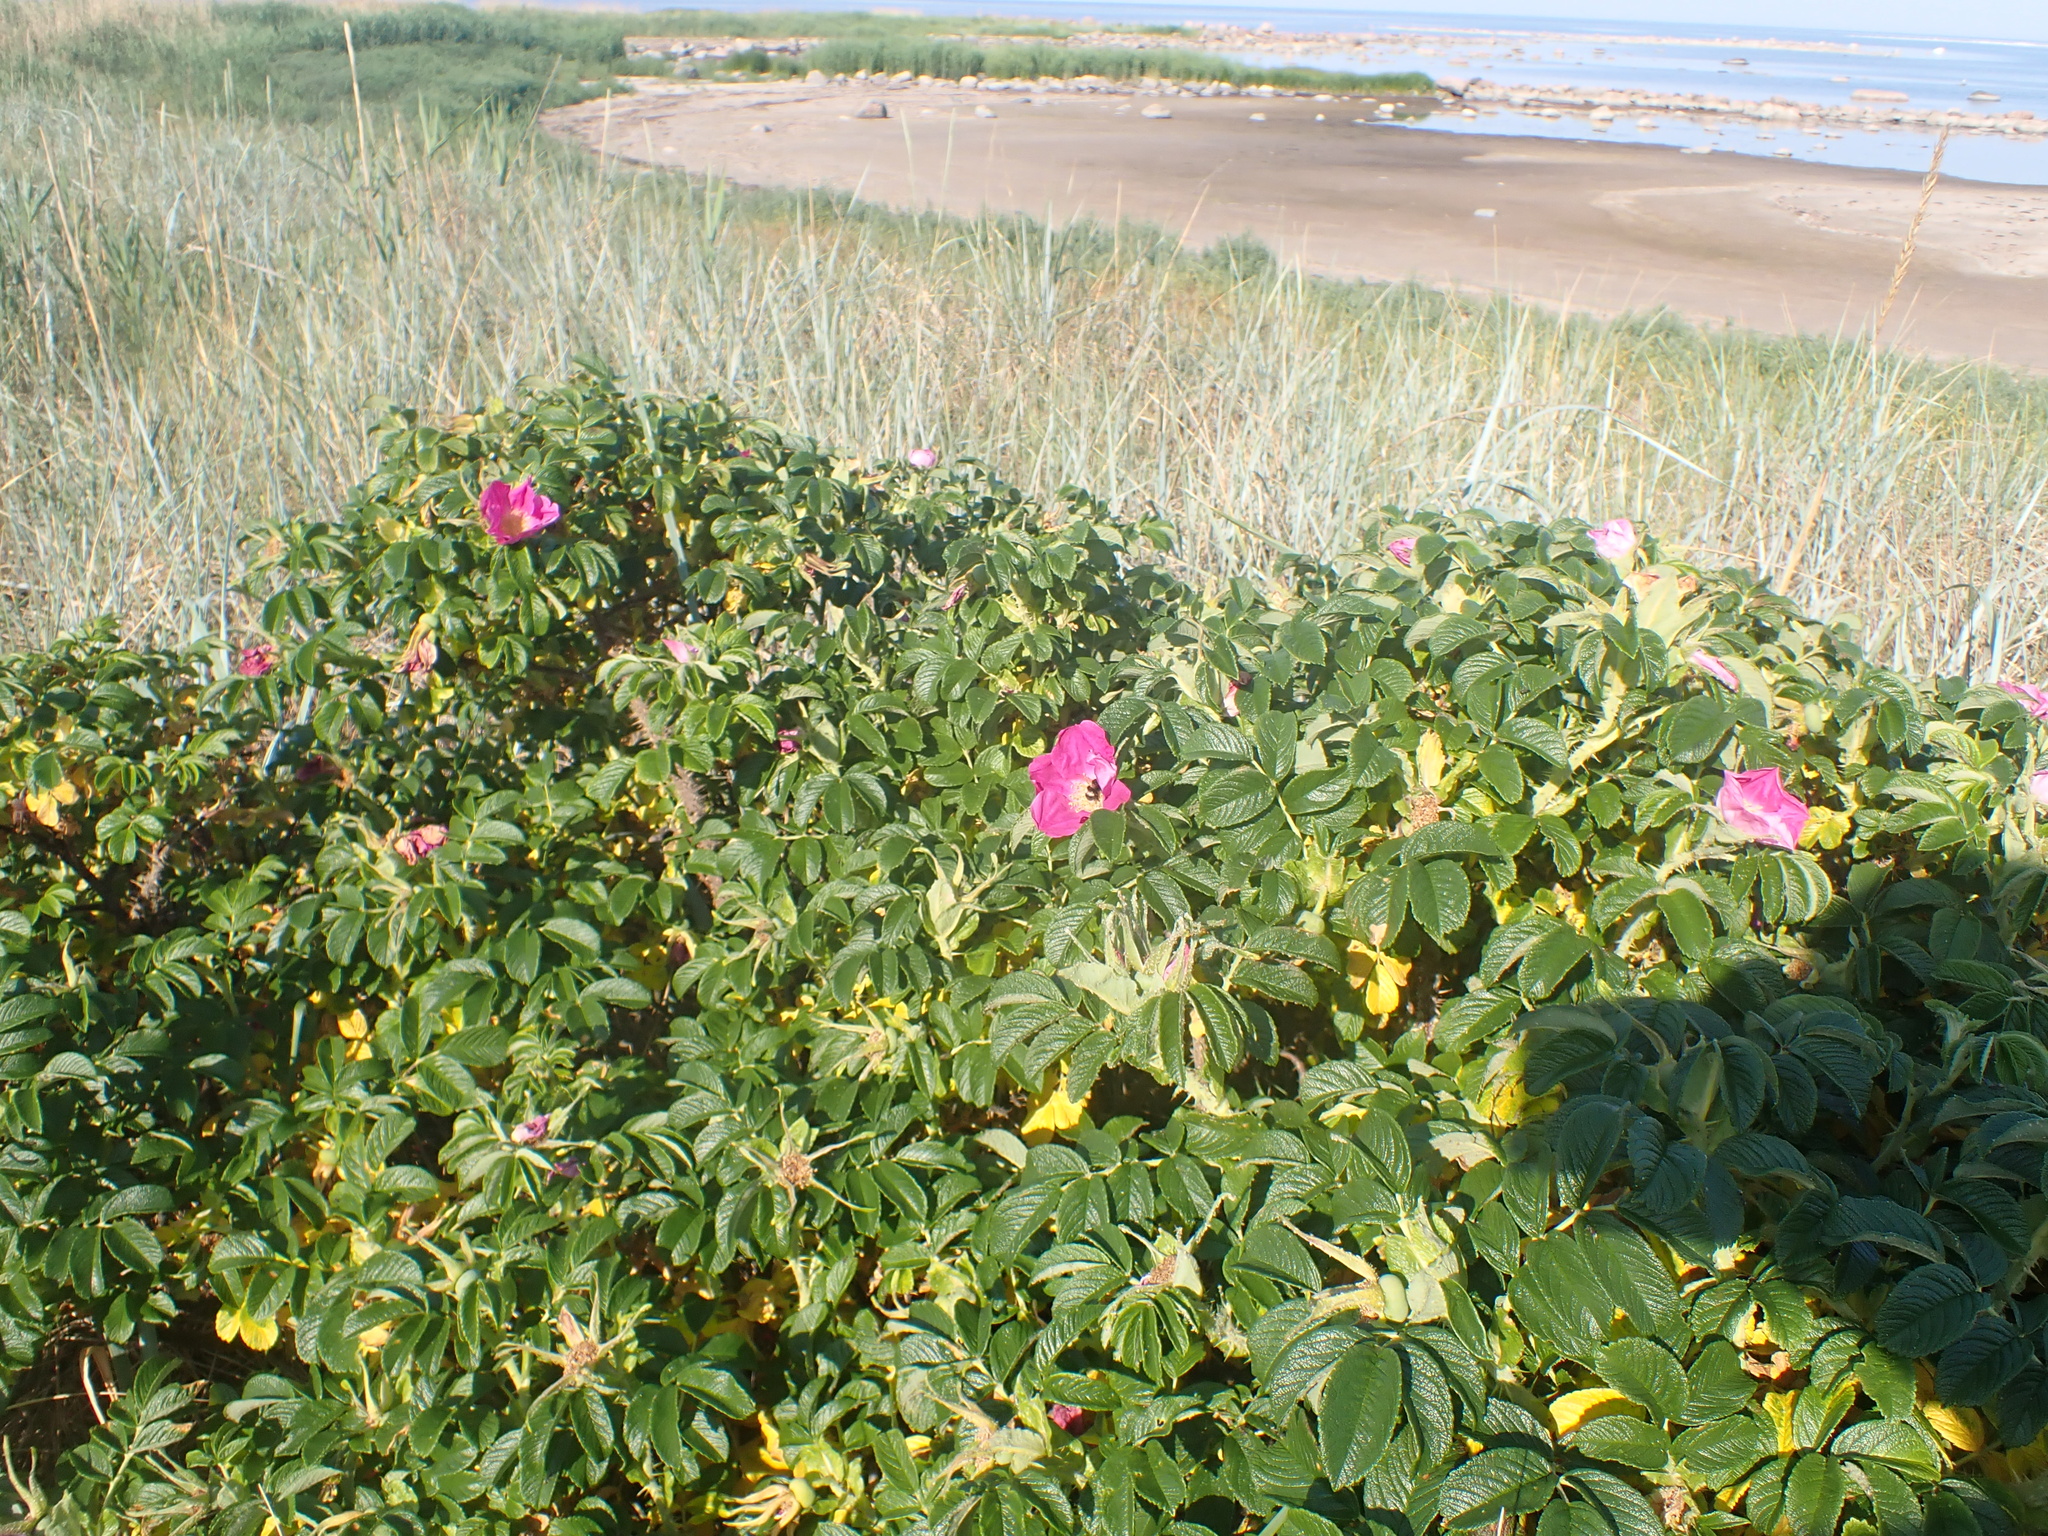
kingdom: Plantae
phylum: Tracheophyta
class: Magnoliopsida
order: Rosales
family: Rosaceae
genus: Rosa
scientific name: Rosa rugosa
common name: Japanese rose
